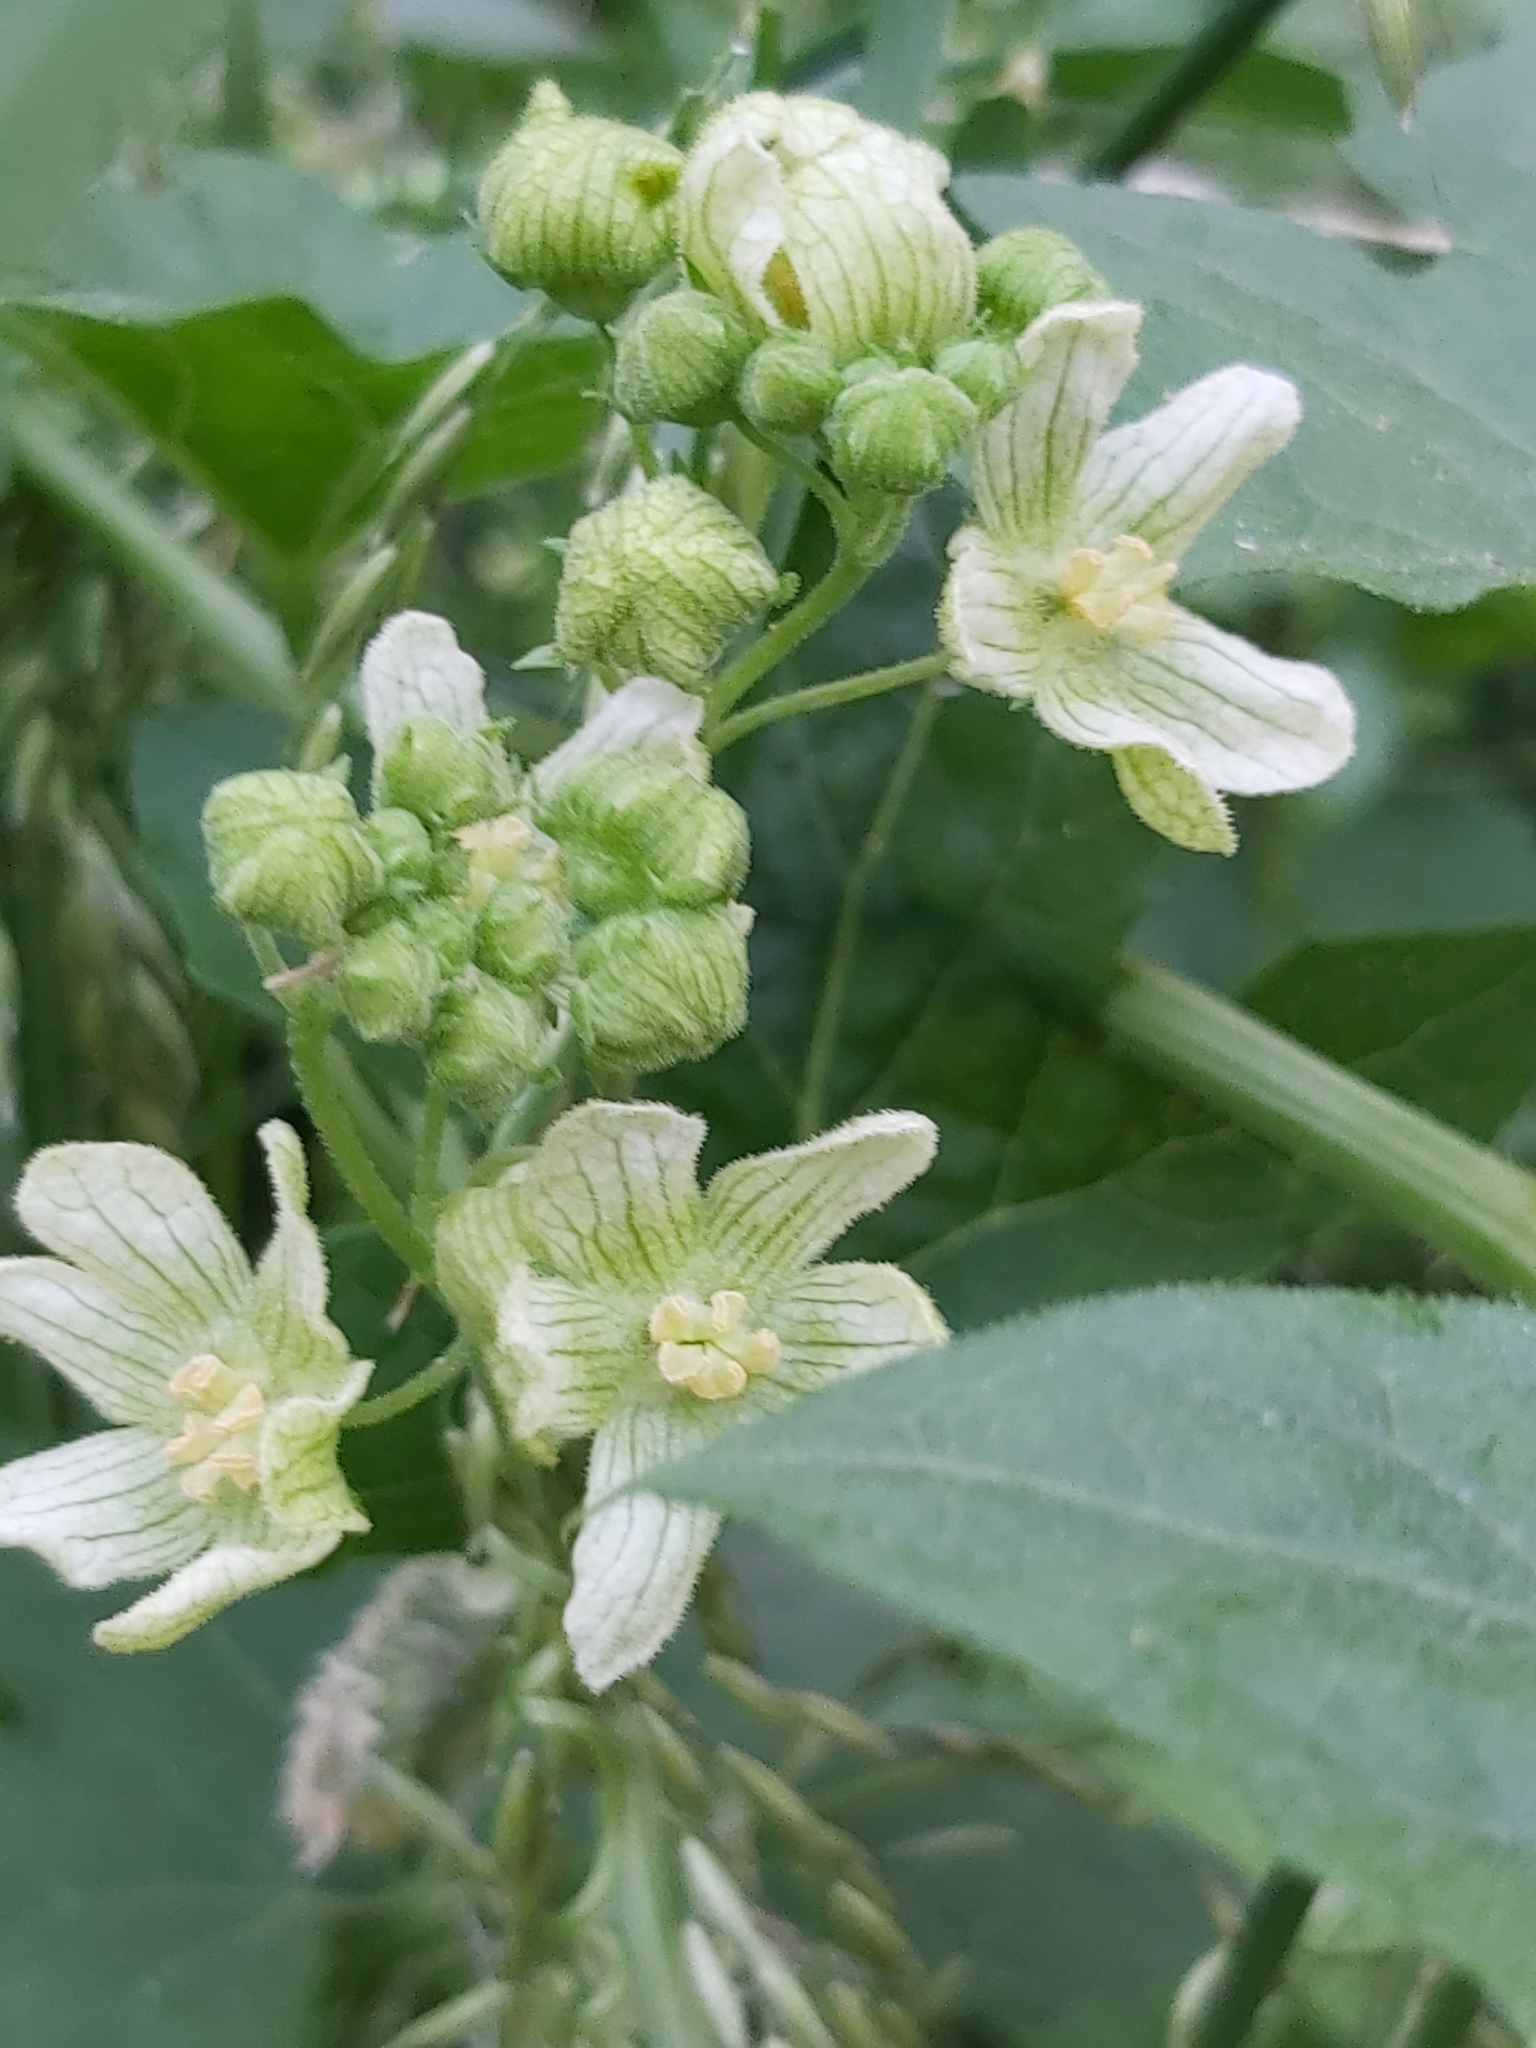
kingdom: Plantae
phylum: Tracheophyta
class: Magnoliopsida
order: Cucurbitales
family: Cucurbitaceae
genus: Bryonia
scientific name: Bryonia cretica
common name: Cretan bryony
